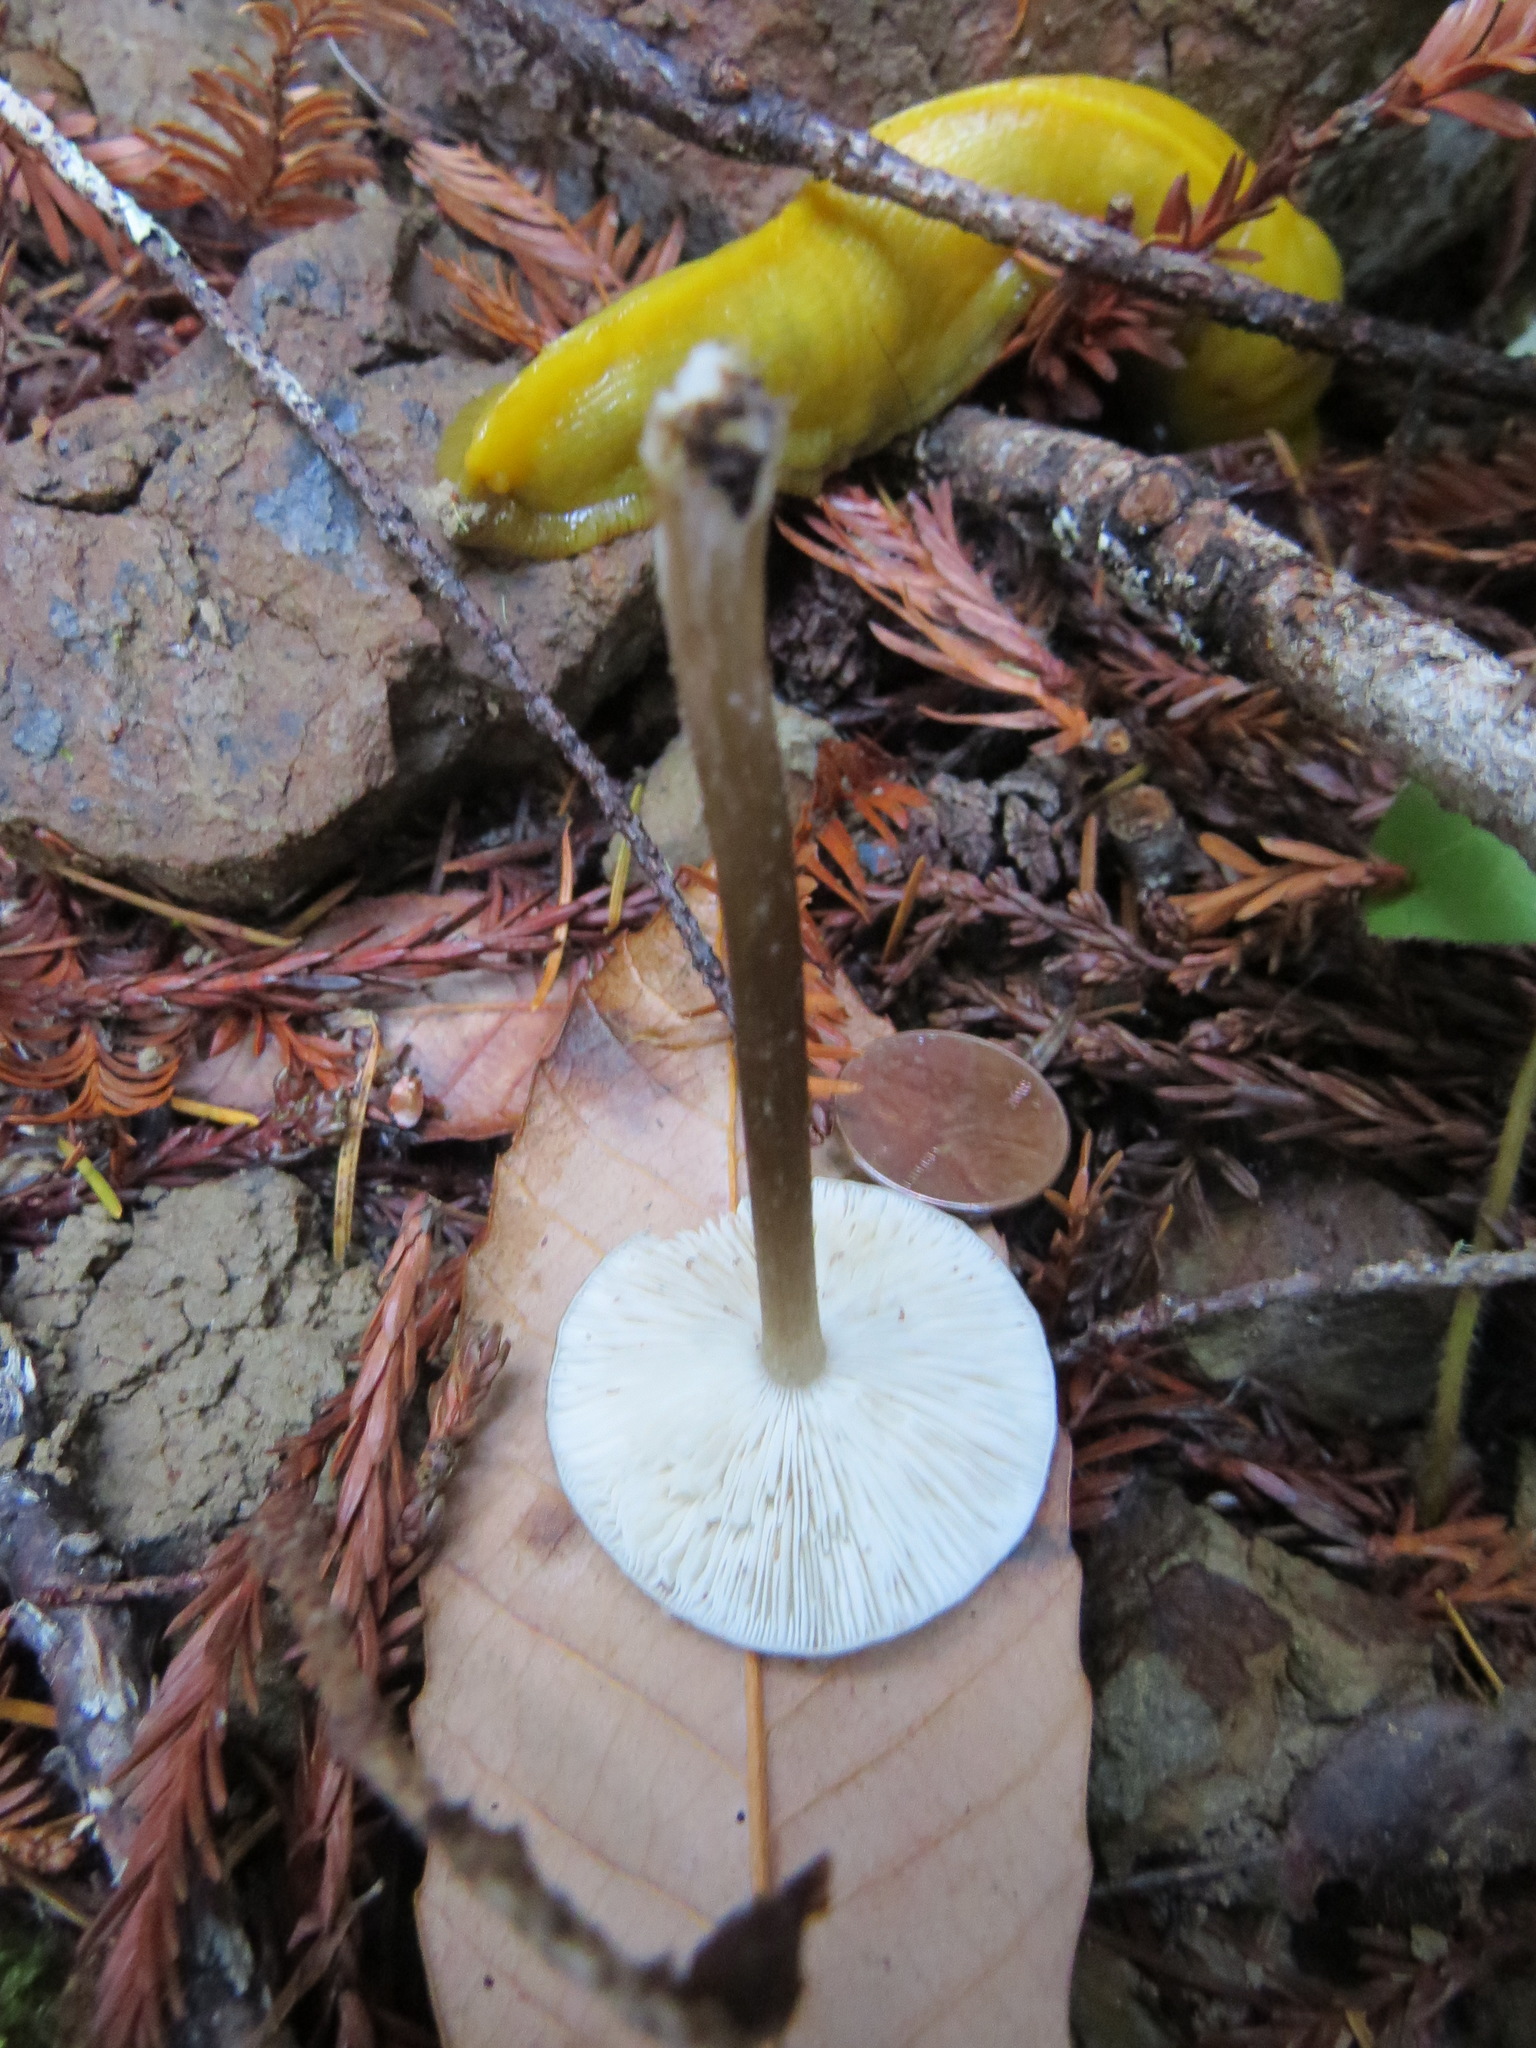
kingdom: Fungi
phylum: Basidiomycota
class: Agaricomycetes
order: Agaricales
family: Pseudoclitocybaceae
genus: Pseudoclitocybe
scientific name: Pseudoclitocybe cyathiformis
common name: Goblet
